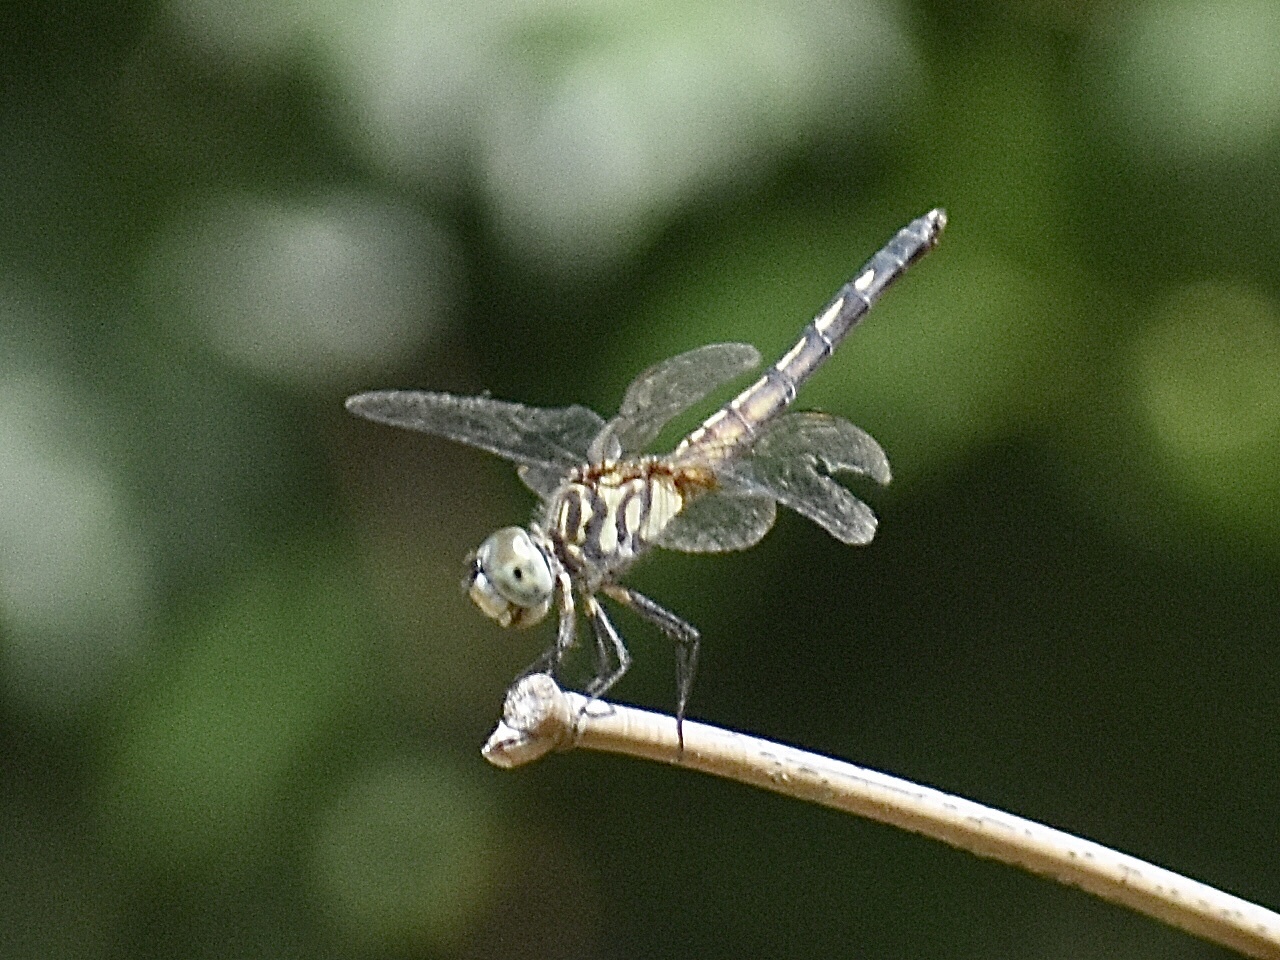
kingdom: Animalia
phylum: Arthropoda
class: Insecta
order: Odonata
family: Libellulidae
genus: Pachydiplax
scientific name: Pachydiplax longipennis
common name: Blue dasher
